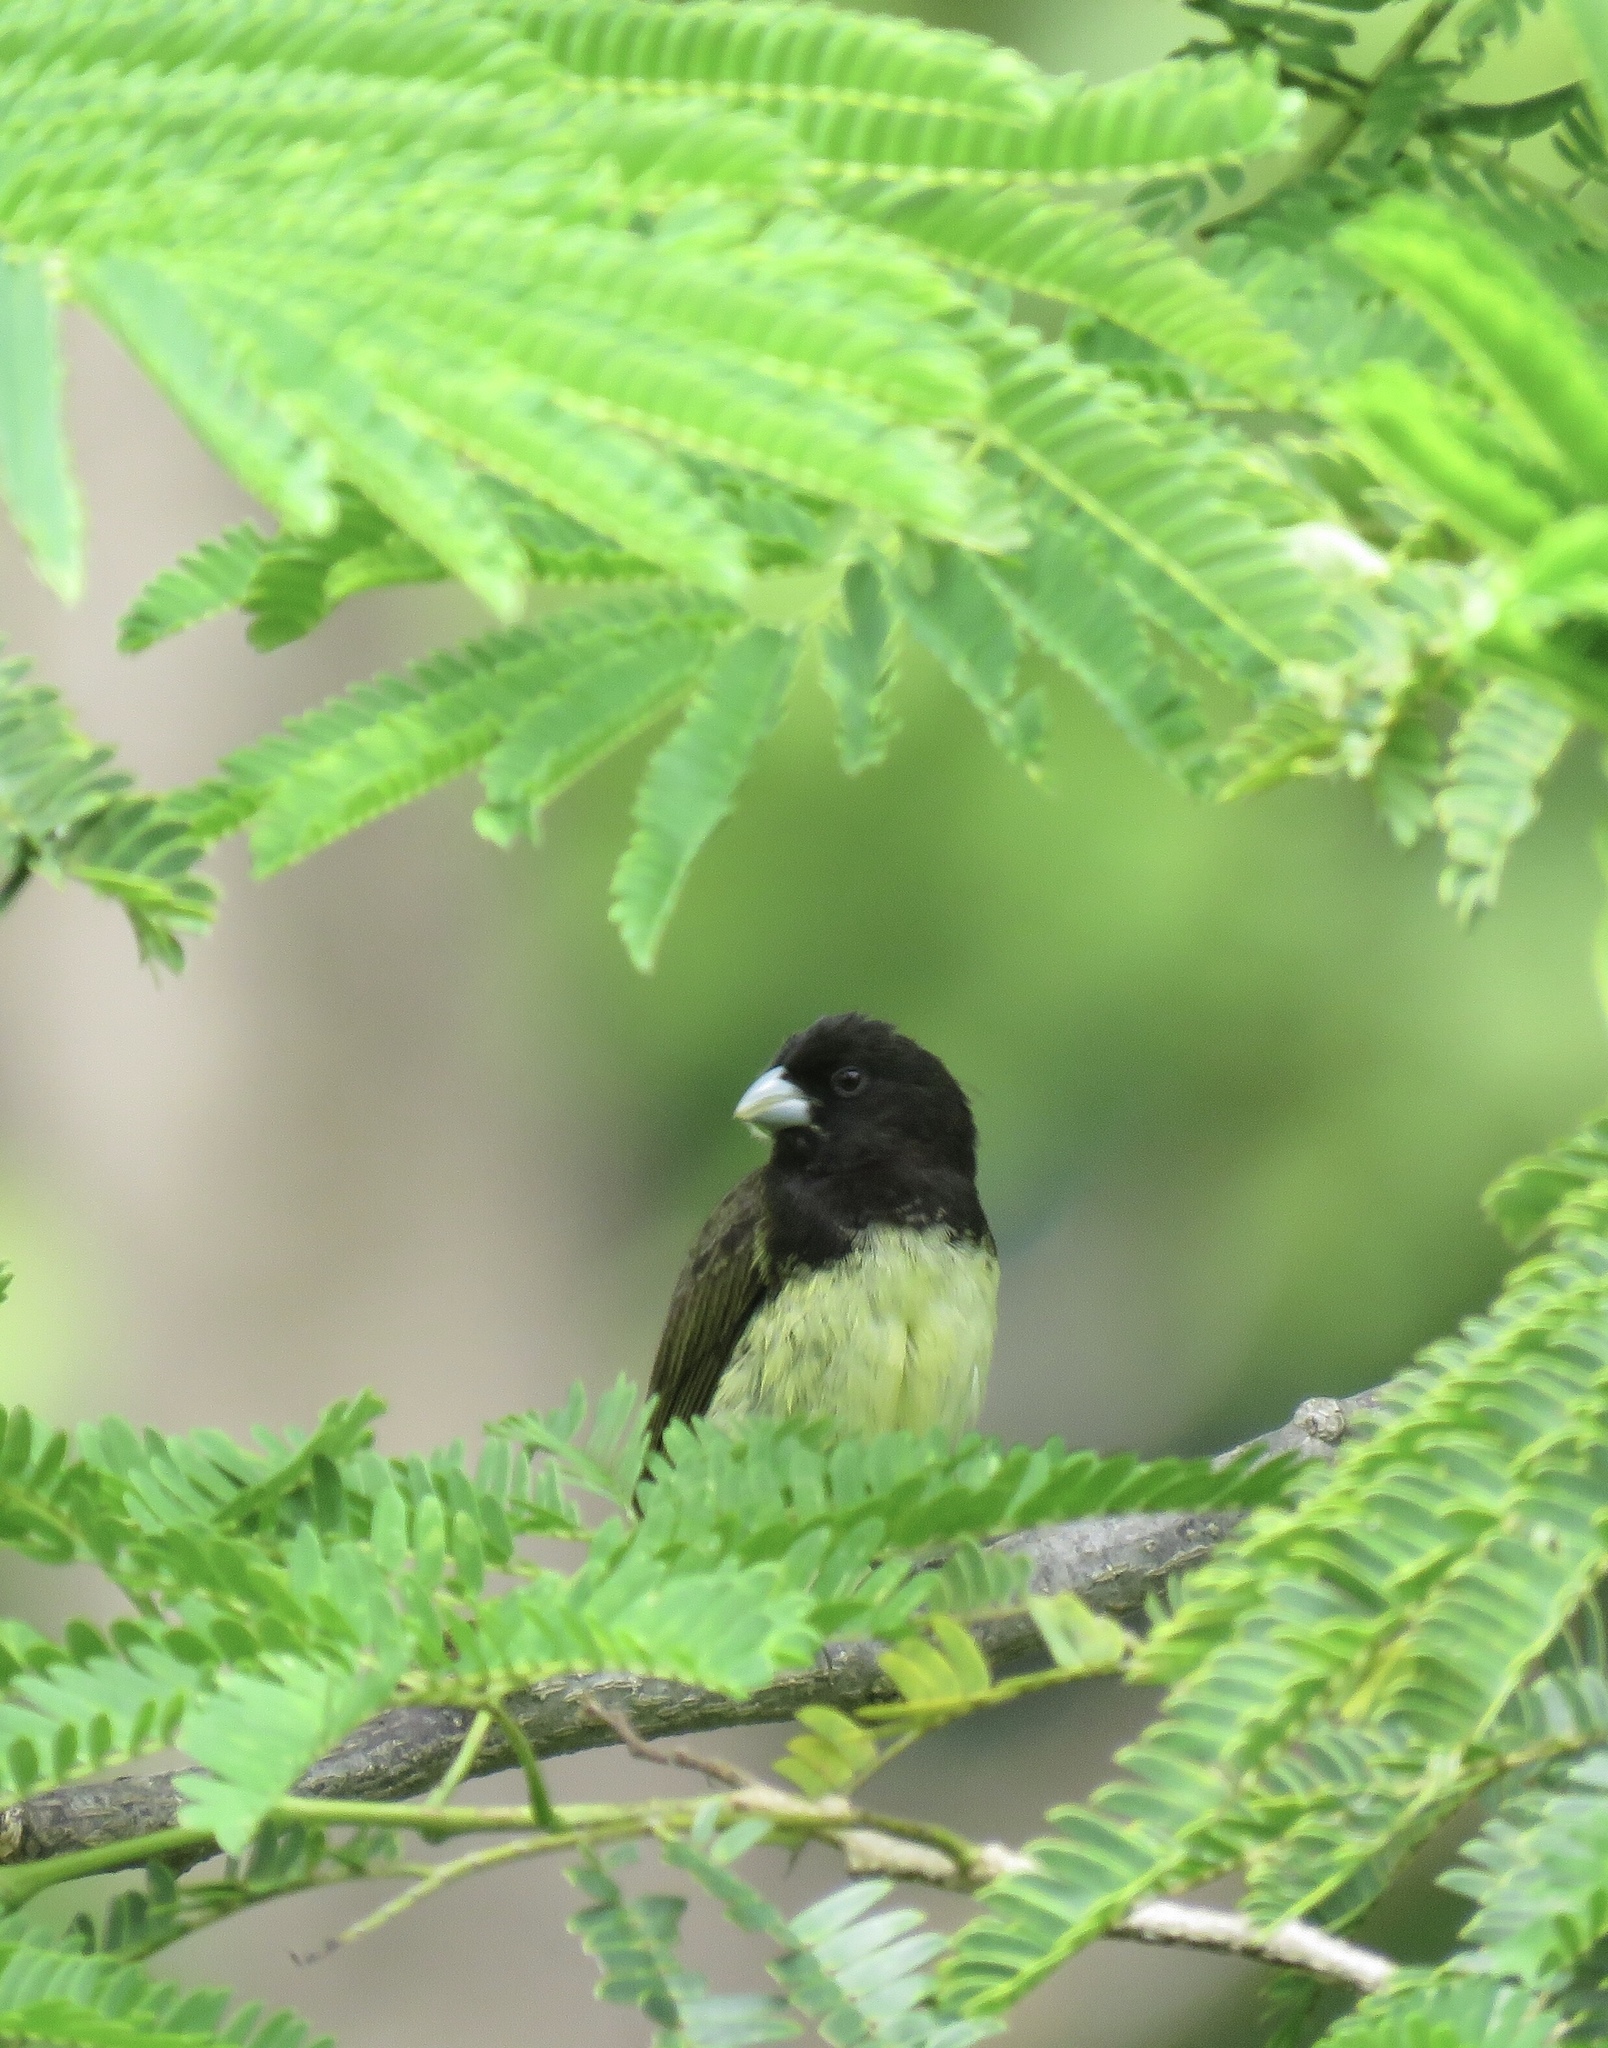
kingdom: Animalia
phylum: Chordata
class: Aves
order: Passeriformes
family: Thraupidae
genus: Sporophila
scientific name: Sporophila nigricollis
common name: Yellow-bellied seedeater
